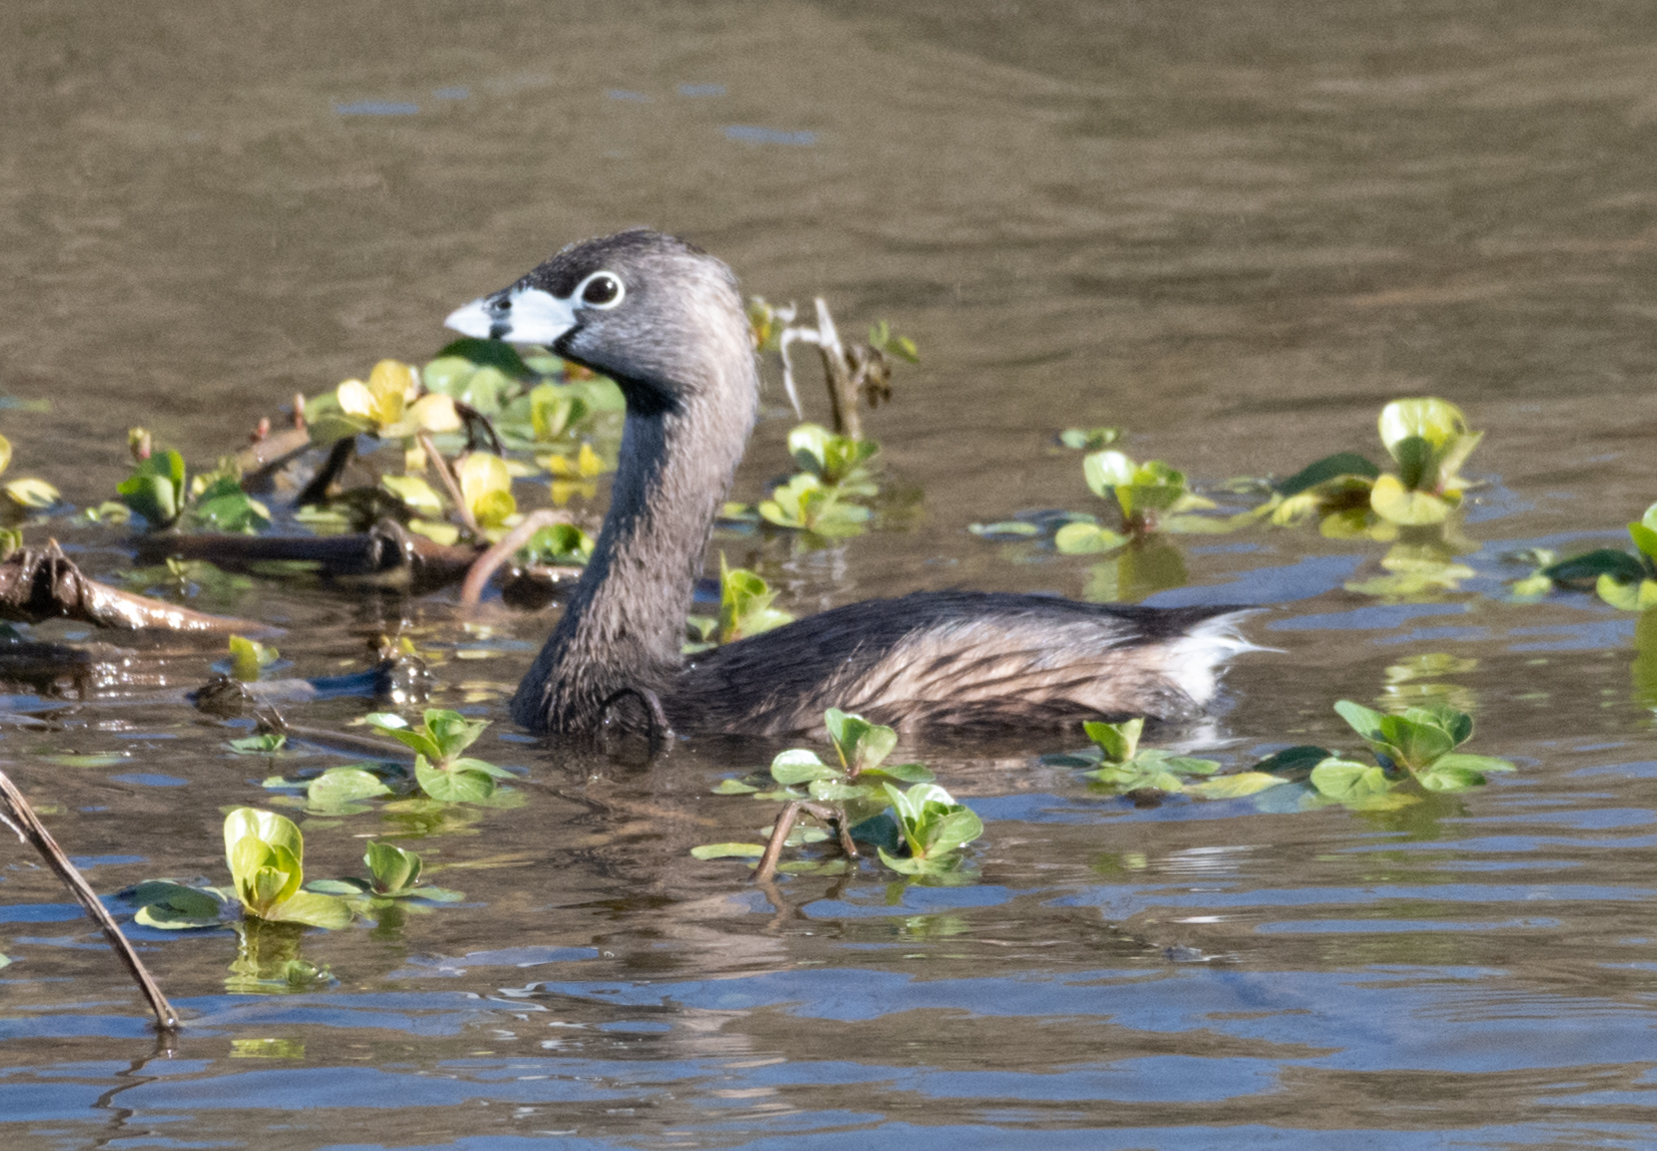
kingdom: Animalia
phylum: Chordata
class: Aves
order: Podicipediformes
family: Podicipedidae
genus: Podilymbus
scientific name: Podilymbus podiceps
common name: Pied-billed grebe
